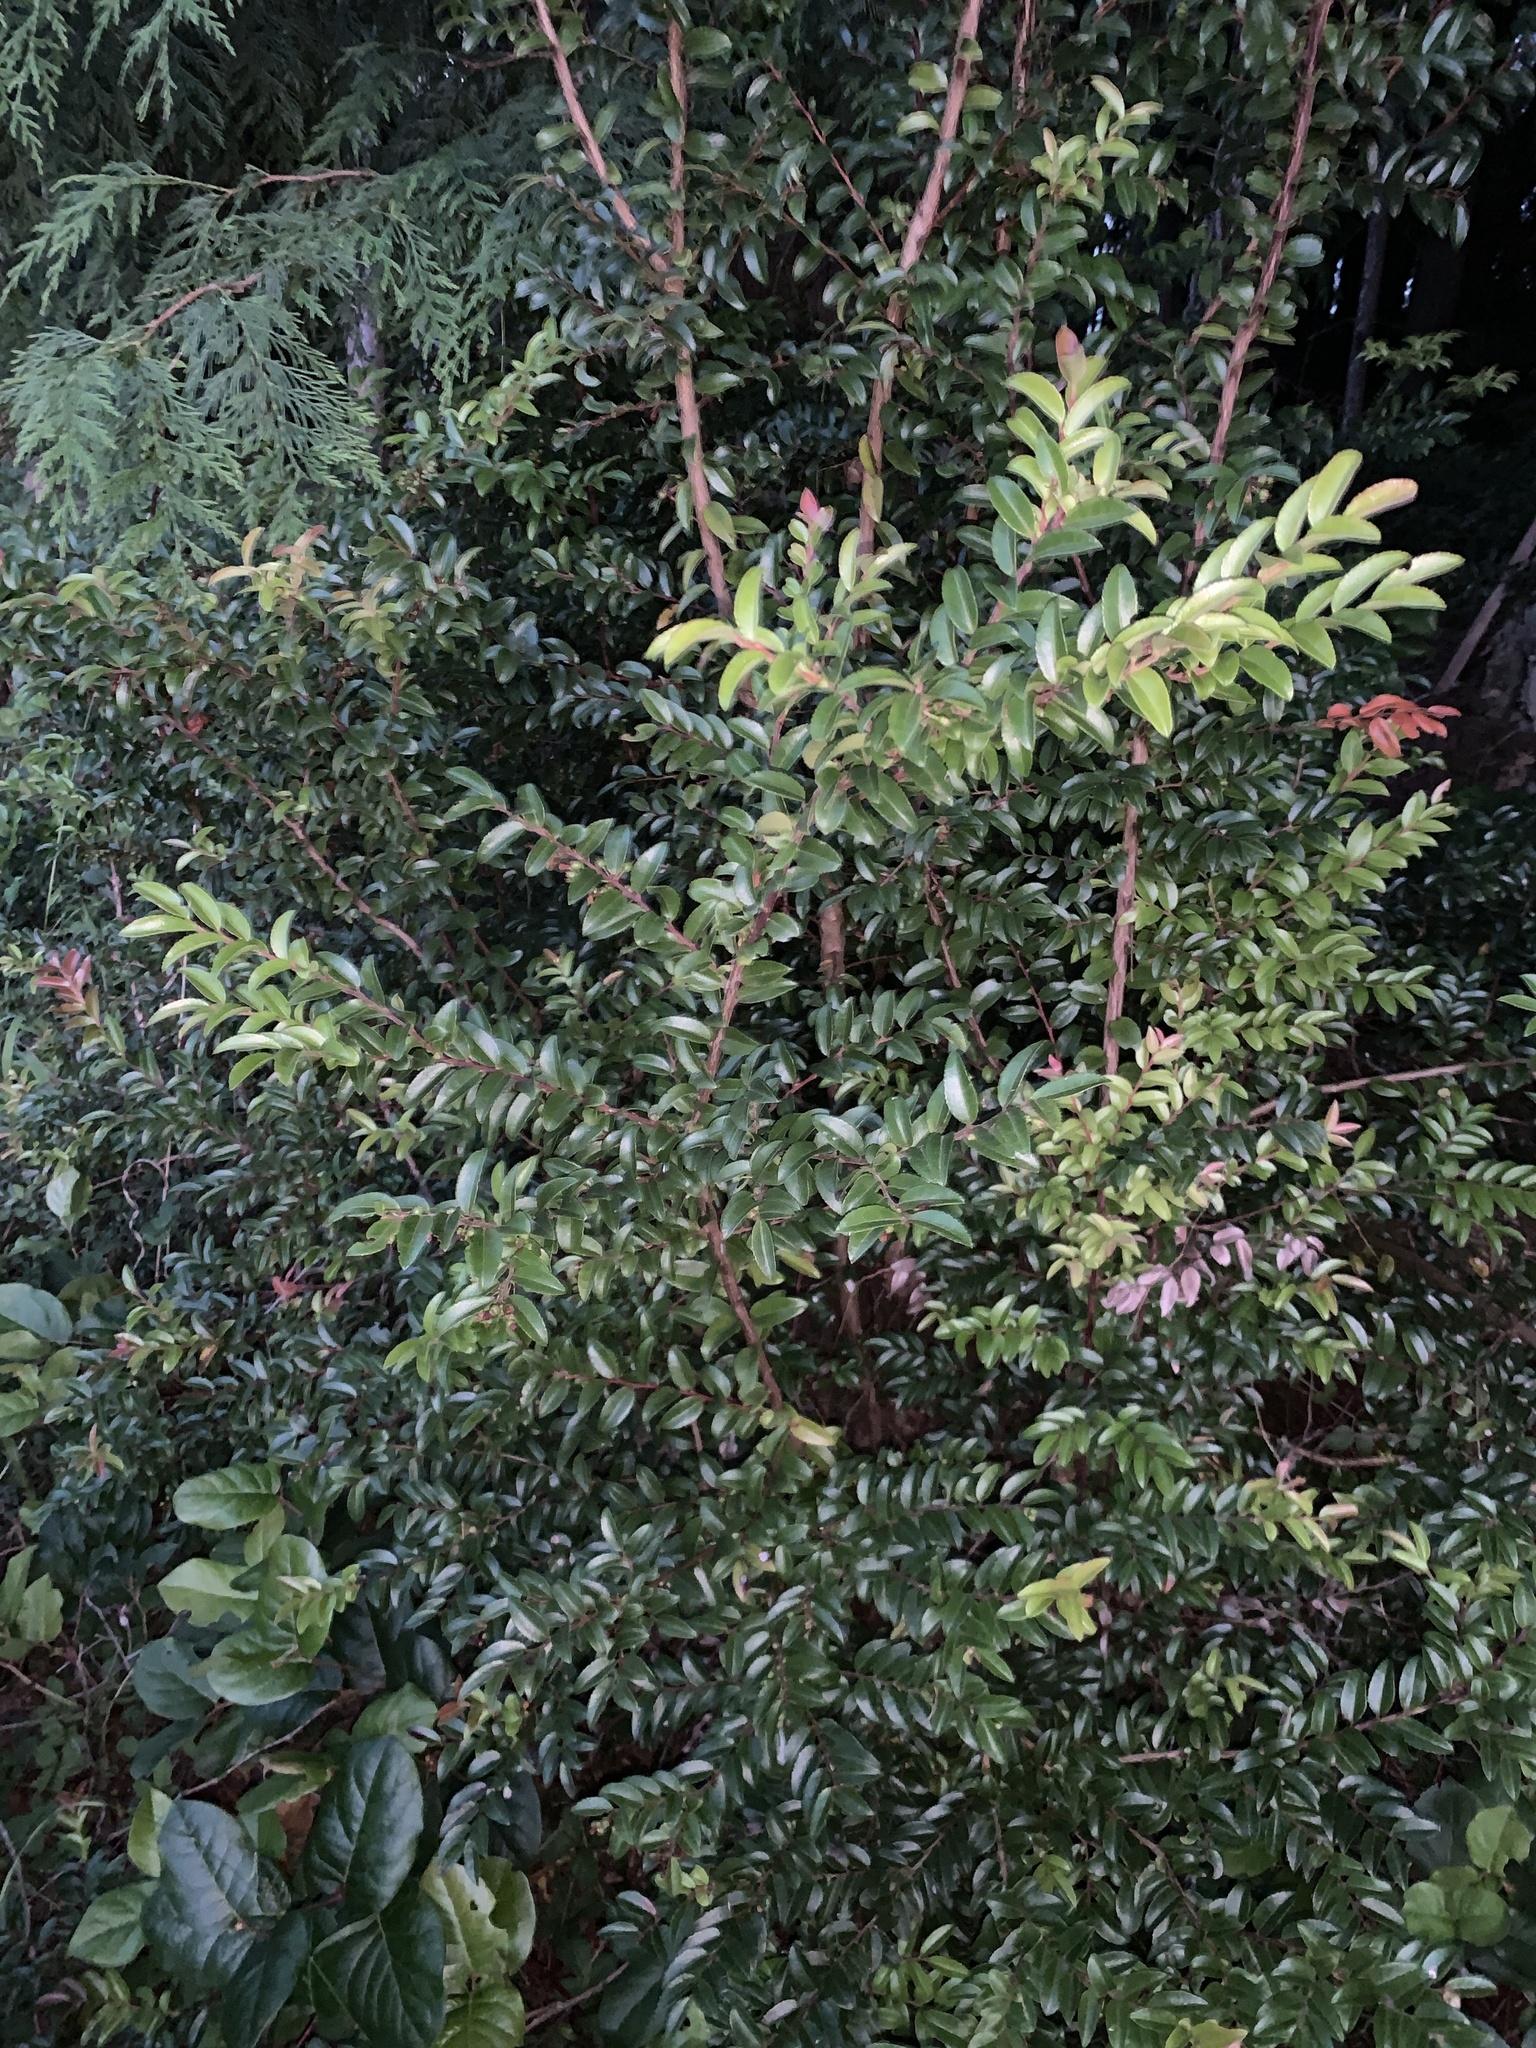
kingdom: Plantae
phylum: Tracheophyta
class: Magnoliopsida
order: Ericales
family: Ericaceae
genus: Vaccinium
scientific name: Vaccinium ovatum
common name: California-huckleberry
